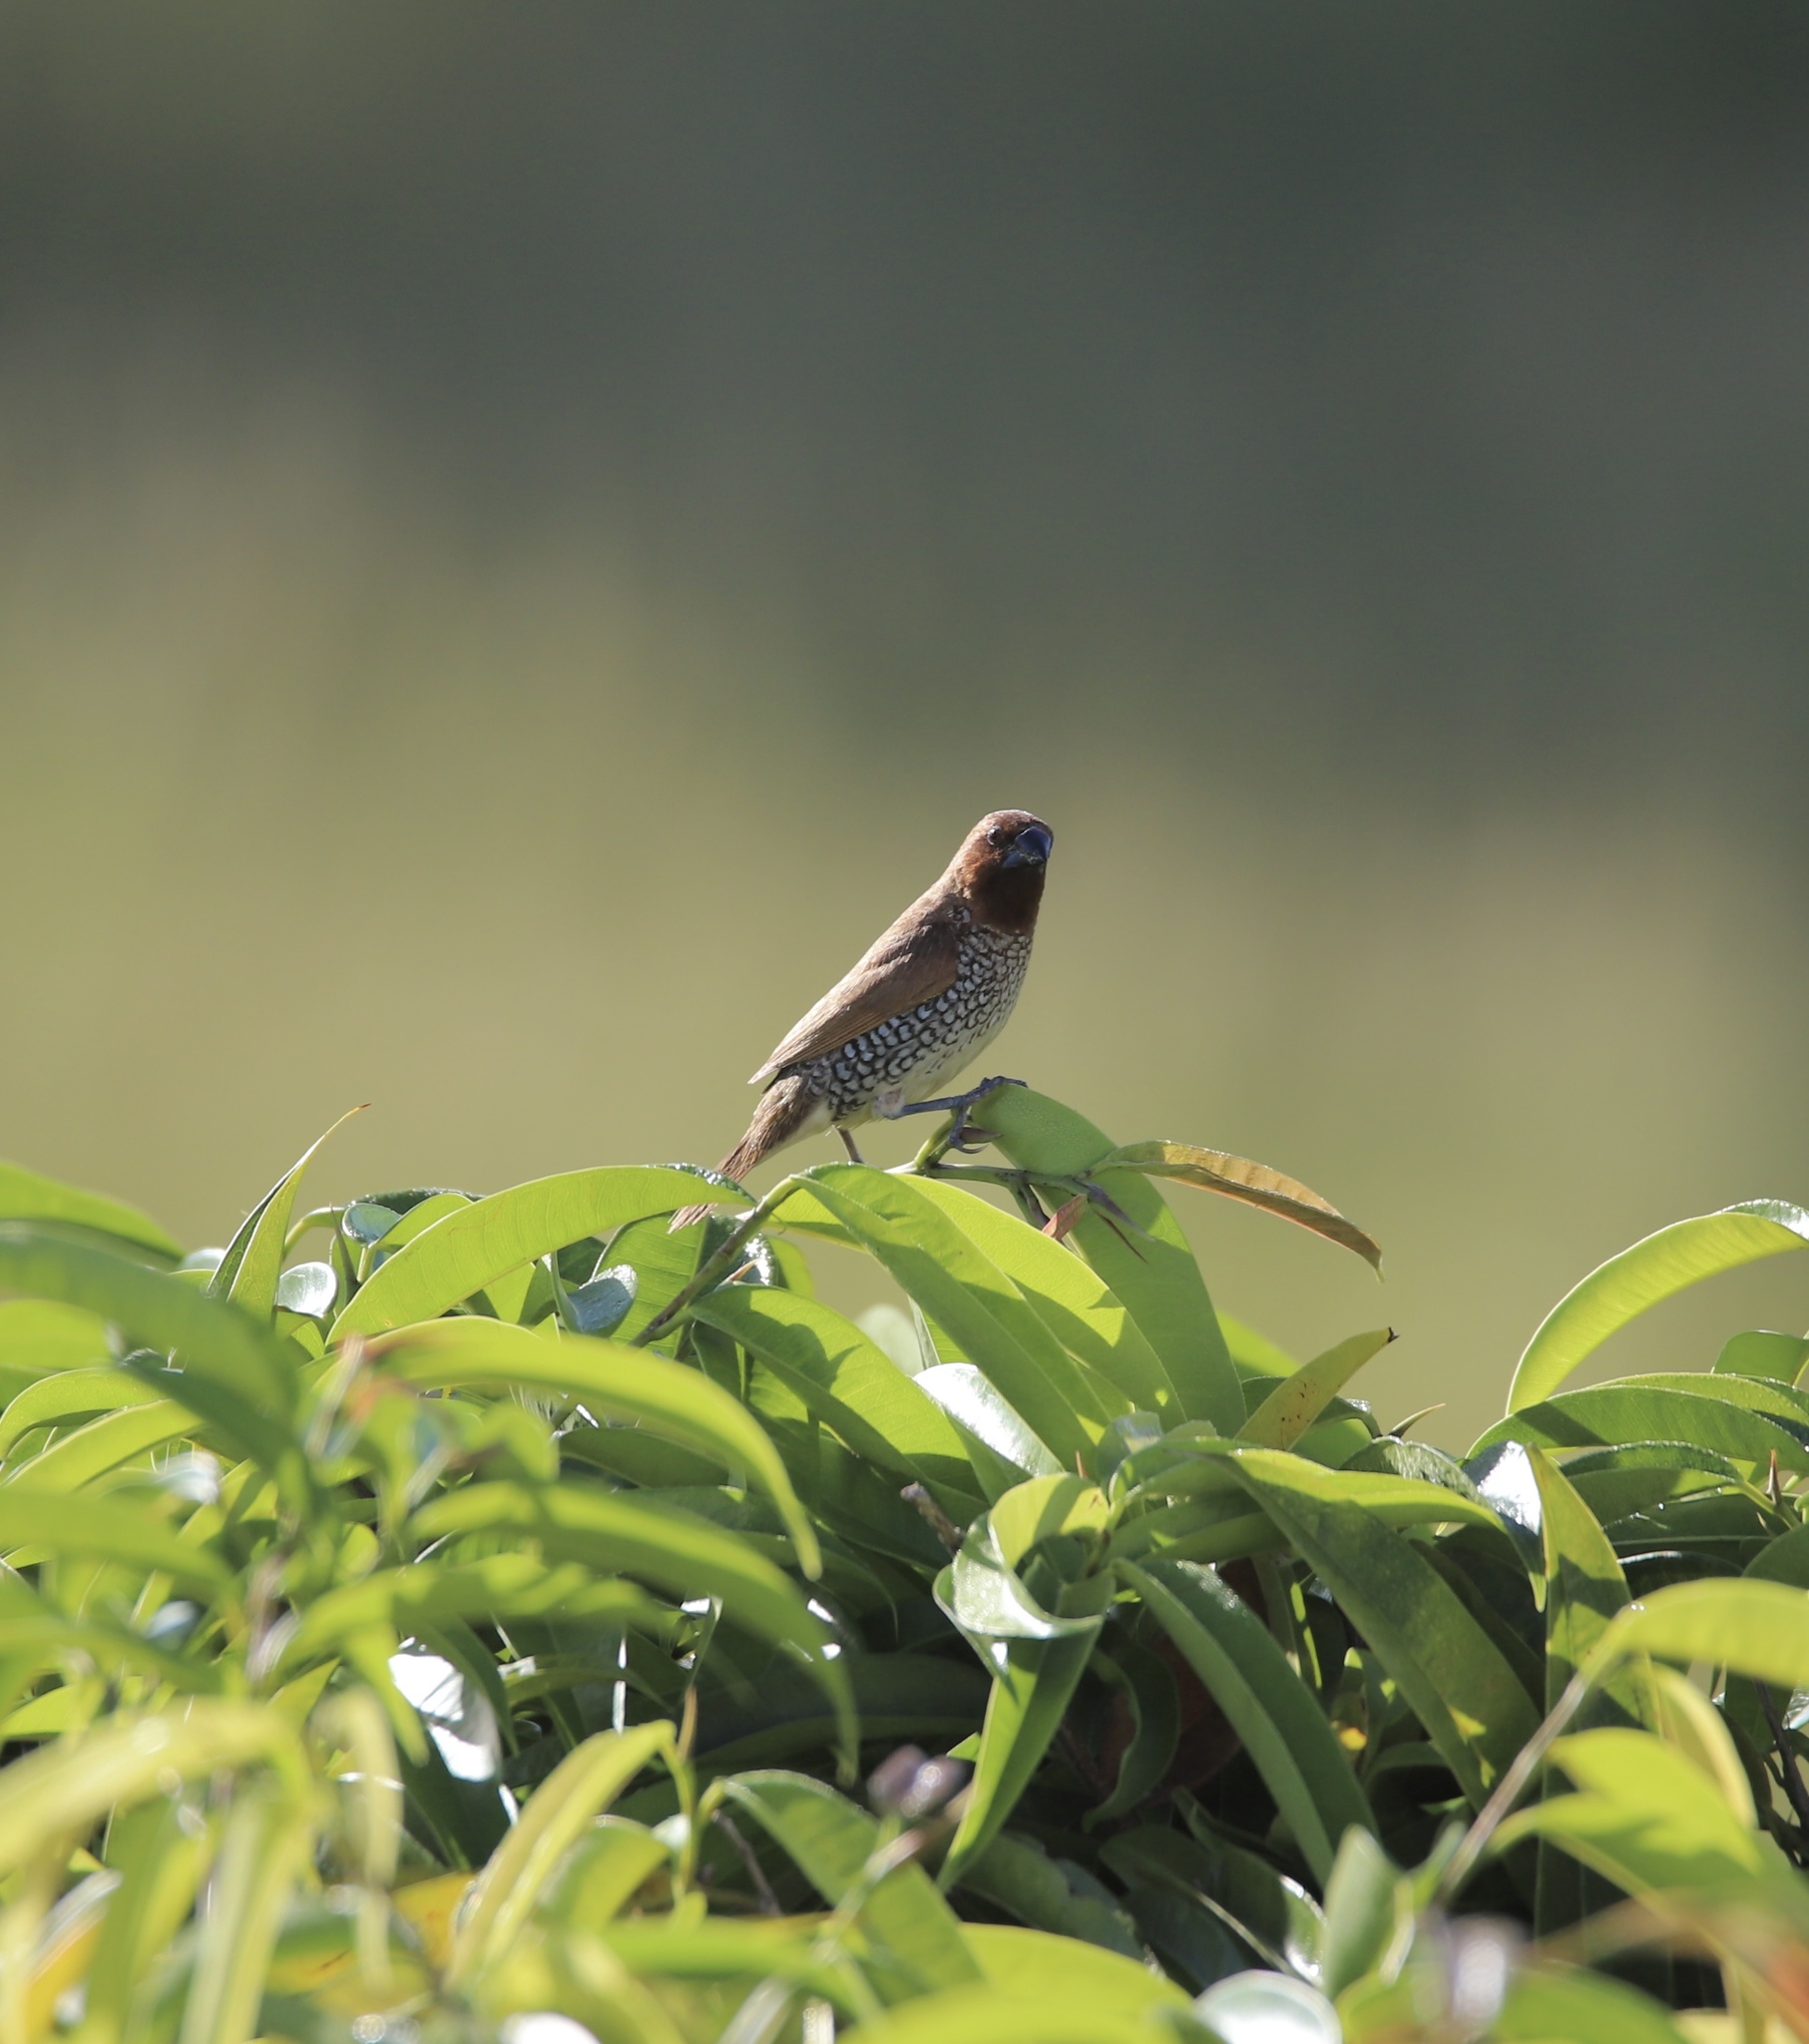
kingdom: Animalia
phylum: Chordata
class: Aves
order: Passeriformes
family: Estrildidae
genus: Lonchura
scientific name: Lonchura punctulata
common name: Scaly-breasted munia
